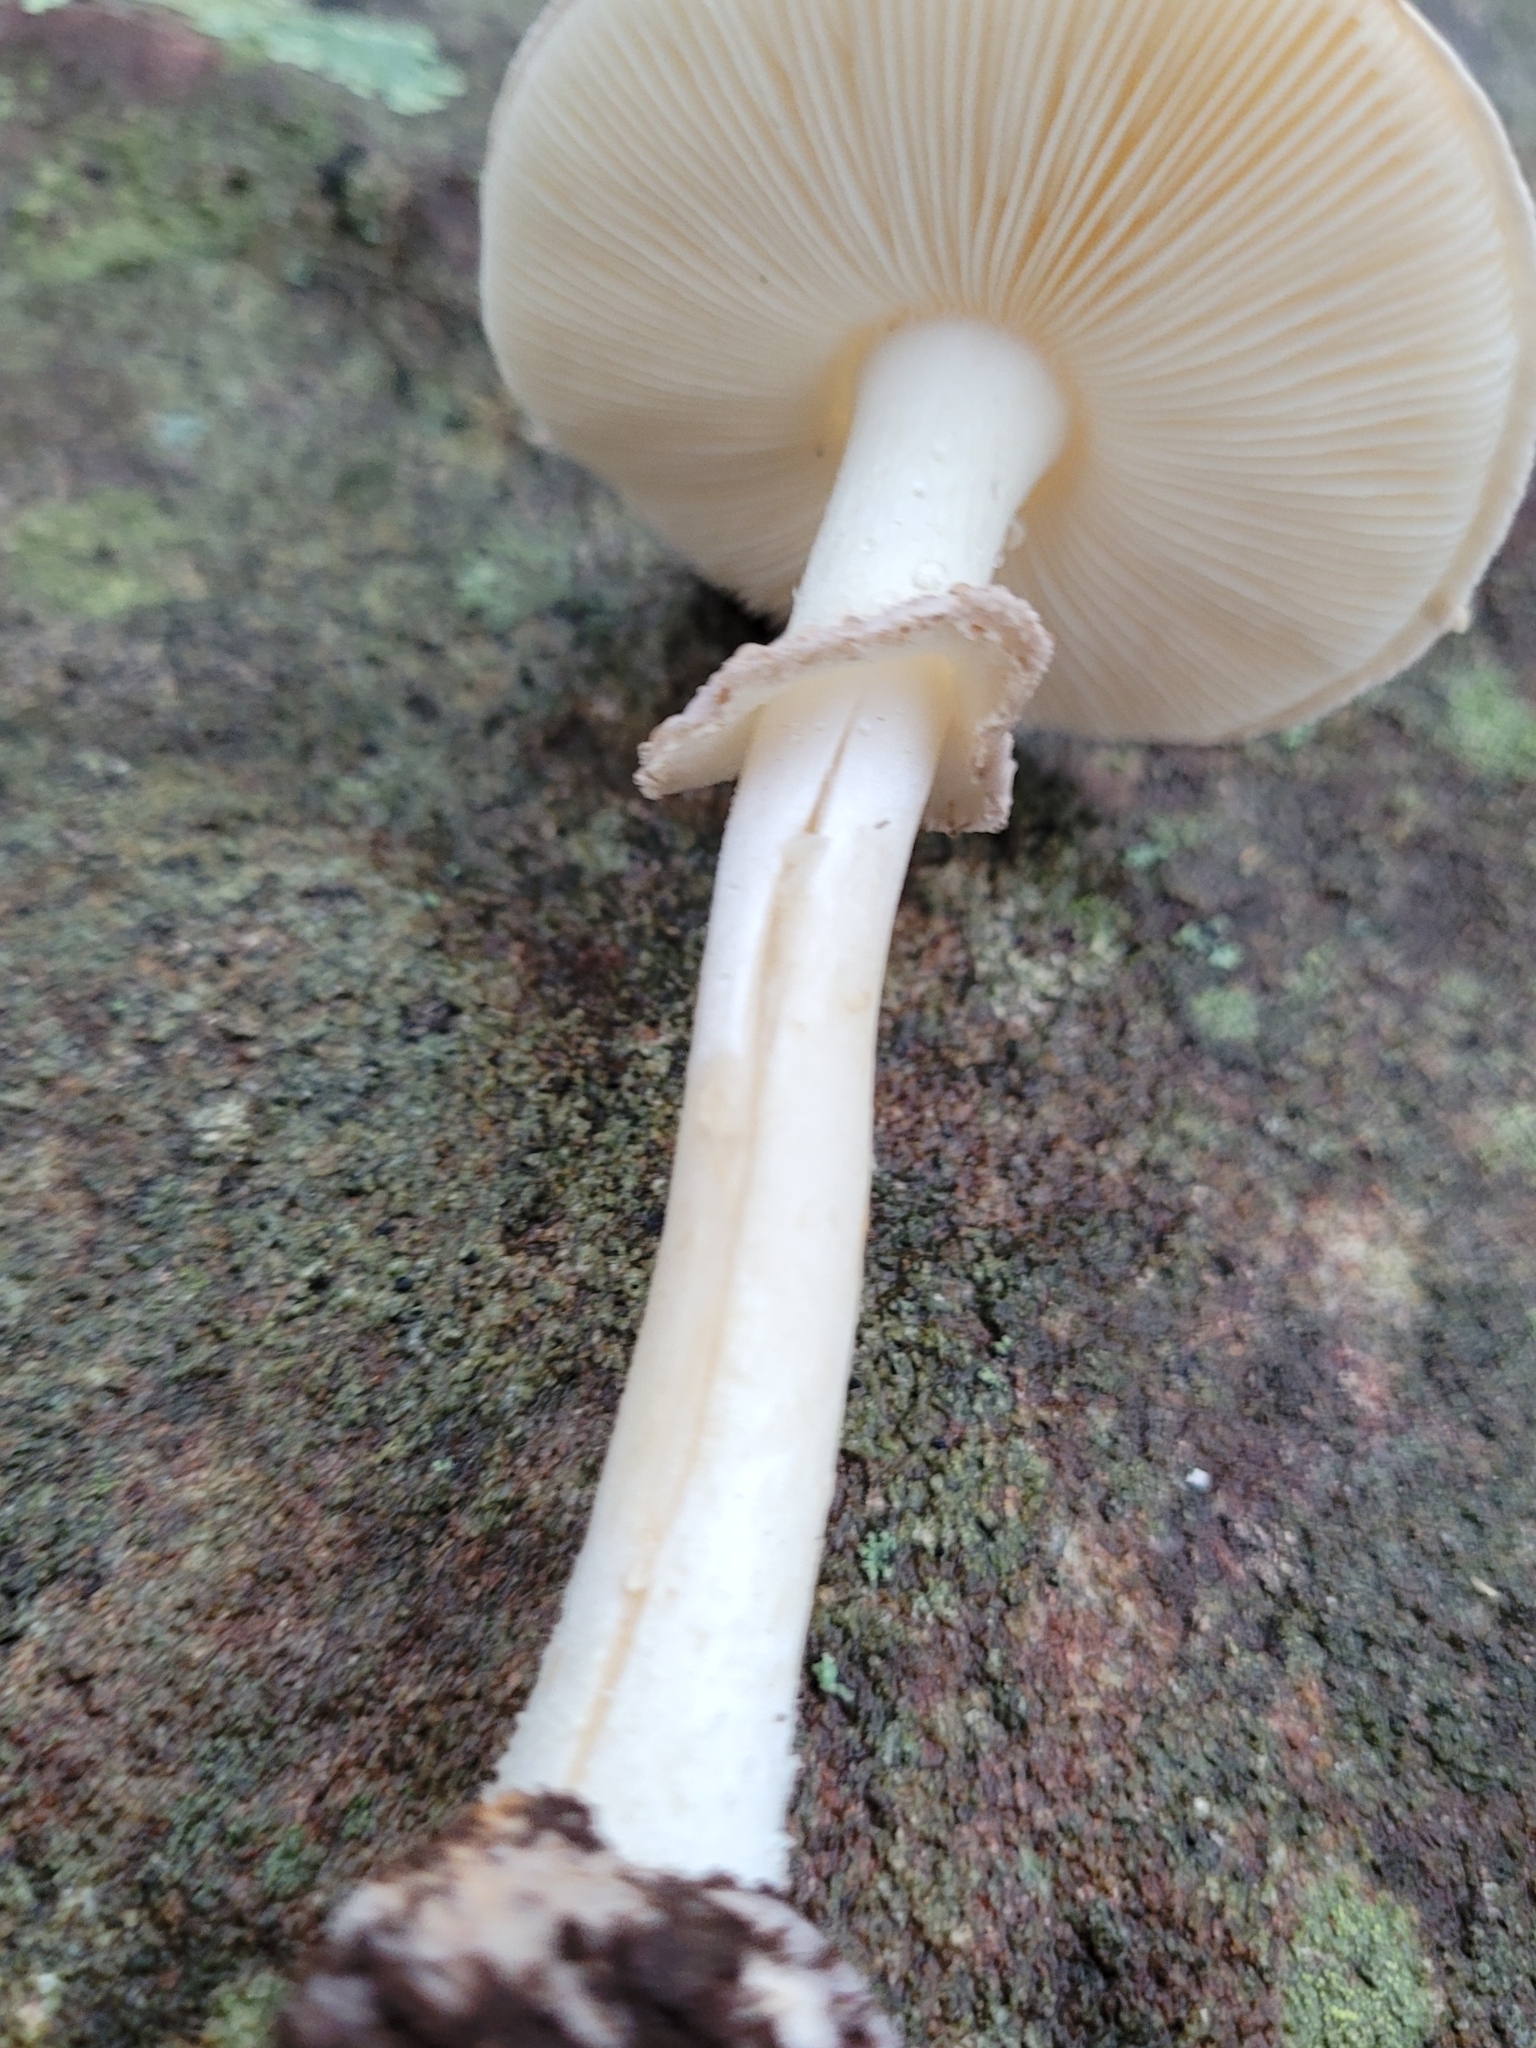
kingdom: Fungi
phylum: Basidiomycota
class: Agaricomycetes
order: Agaricales
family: Amanitaceae
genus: Amanita
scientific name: Amanita lavendula
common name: Coker's lavender staining amanita
